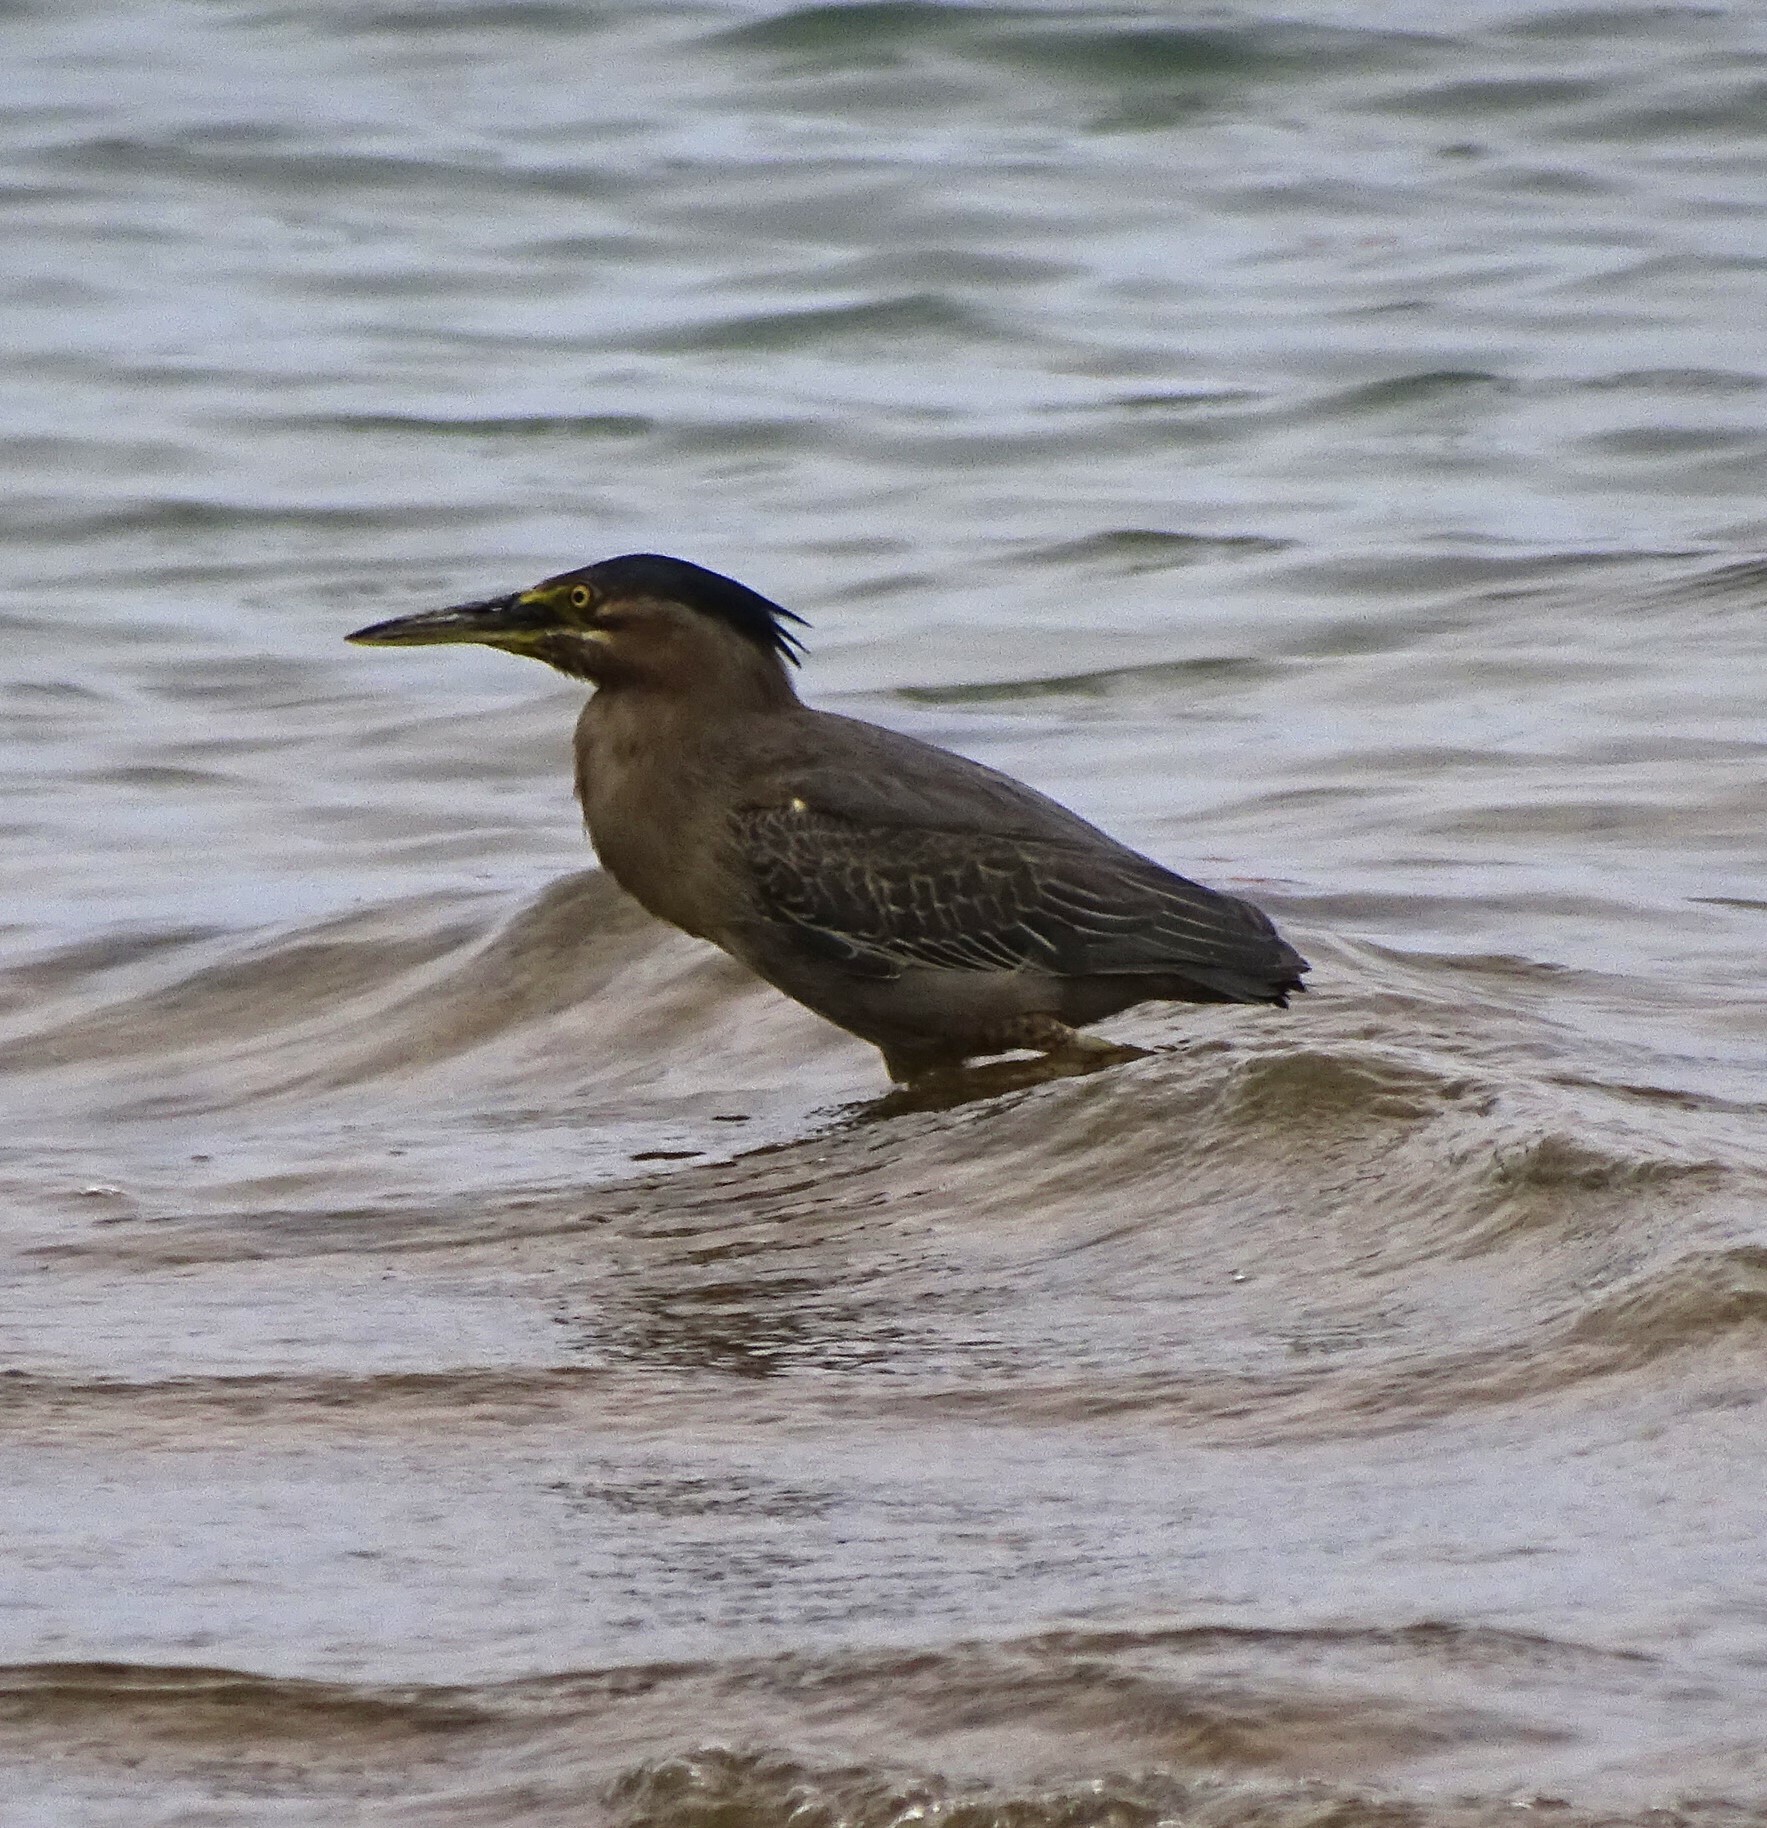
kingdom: Animalia
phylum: Chordata
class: Aves
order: Pelecaniformes
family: Ardeidae
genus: Butorides
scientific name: Butorides striata
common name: Striated heron
